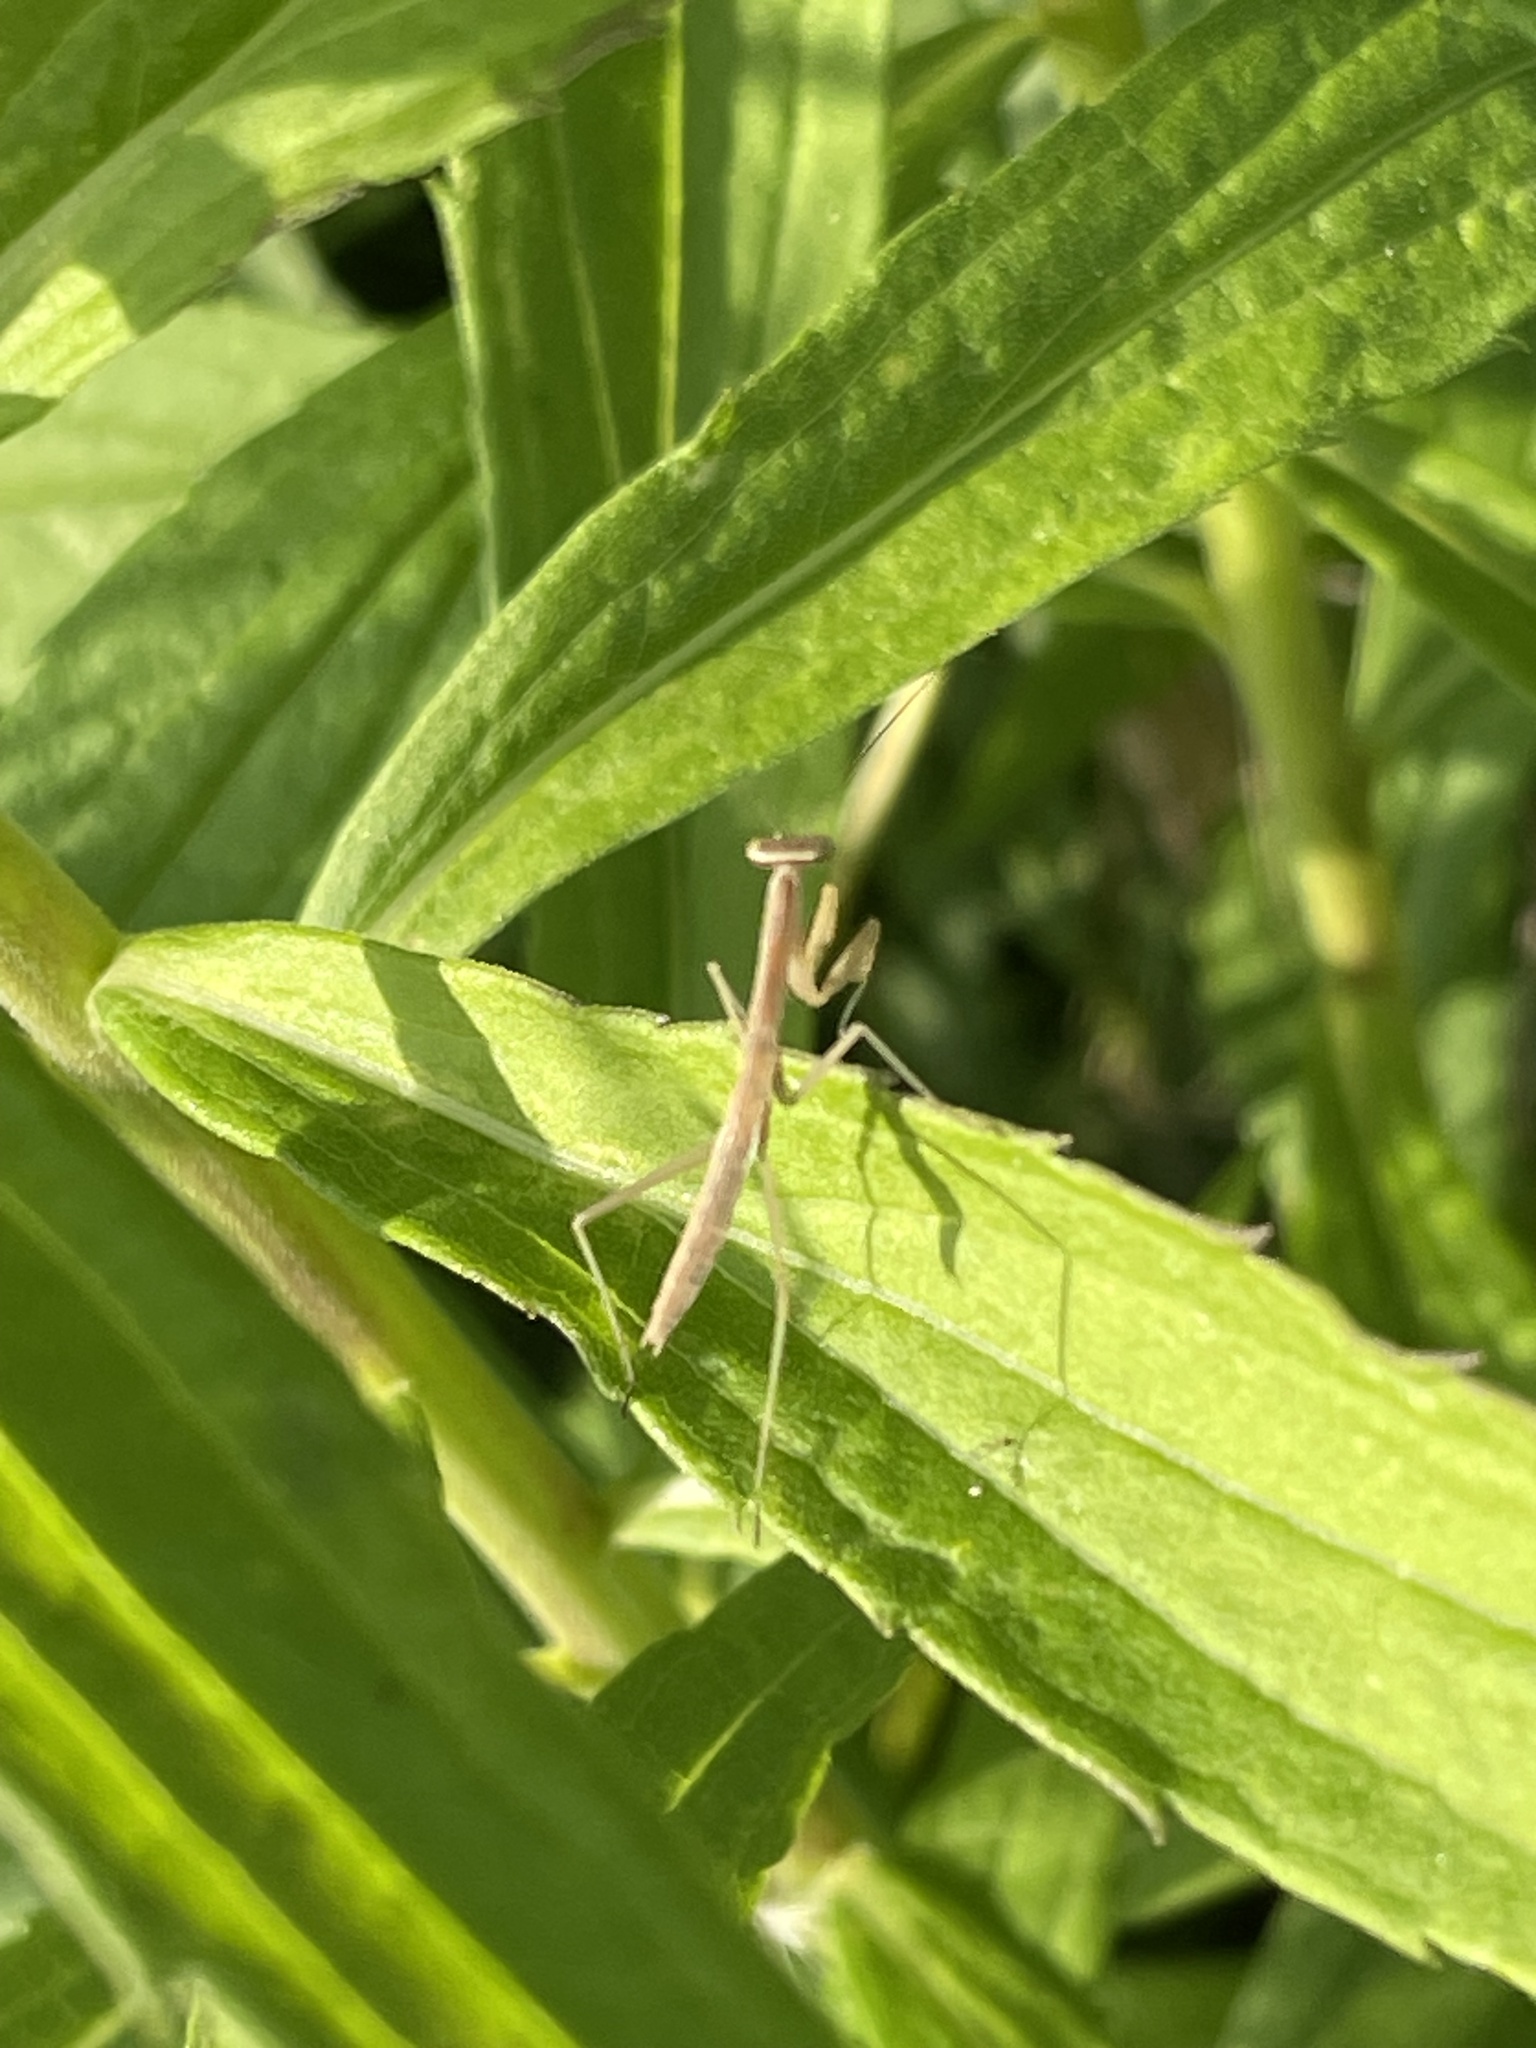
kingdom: Animalia
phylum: Arthropoda
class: Insecta
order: Mantodea
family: Mantidae
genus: Tenodera
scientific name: Tenodera sinensis
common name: Chinese mantis
